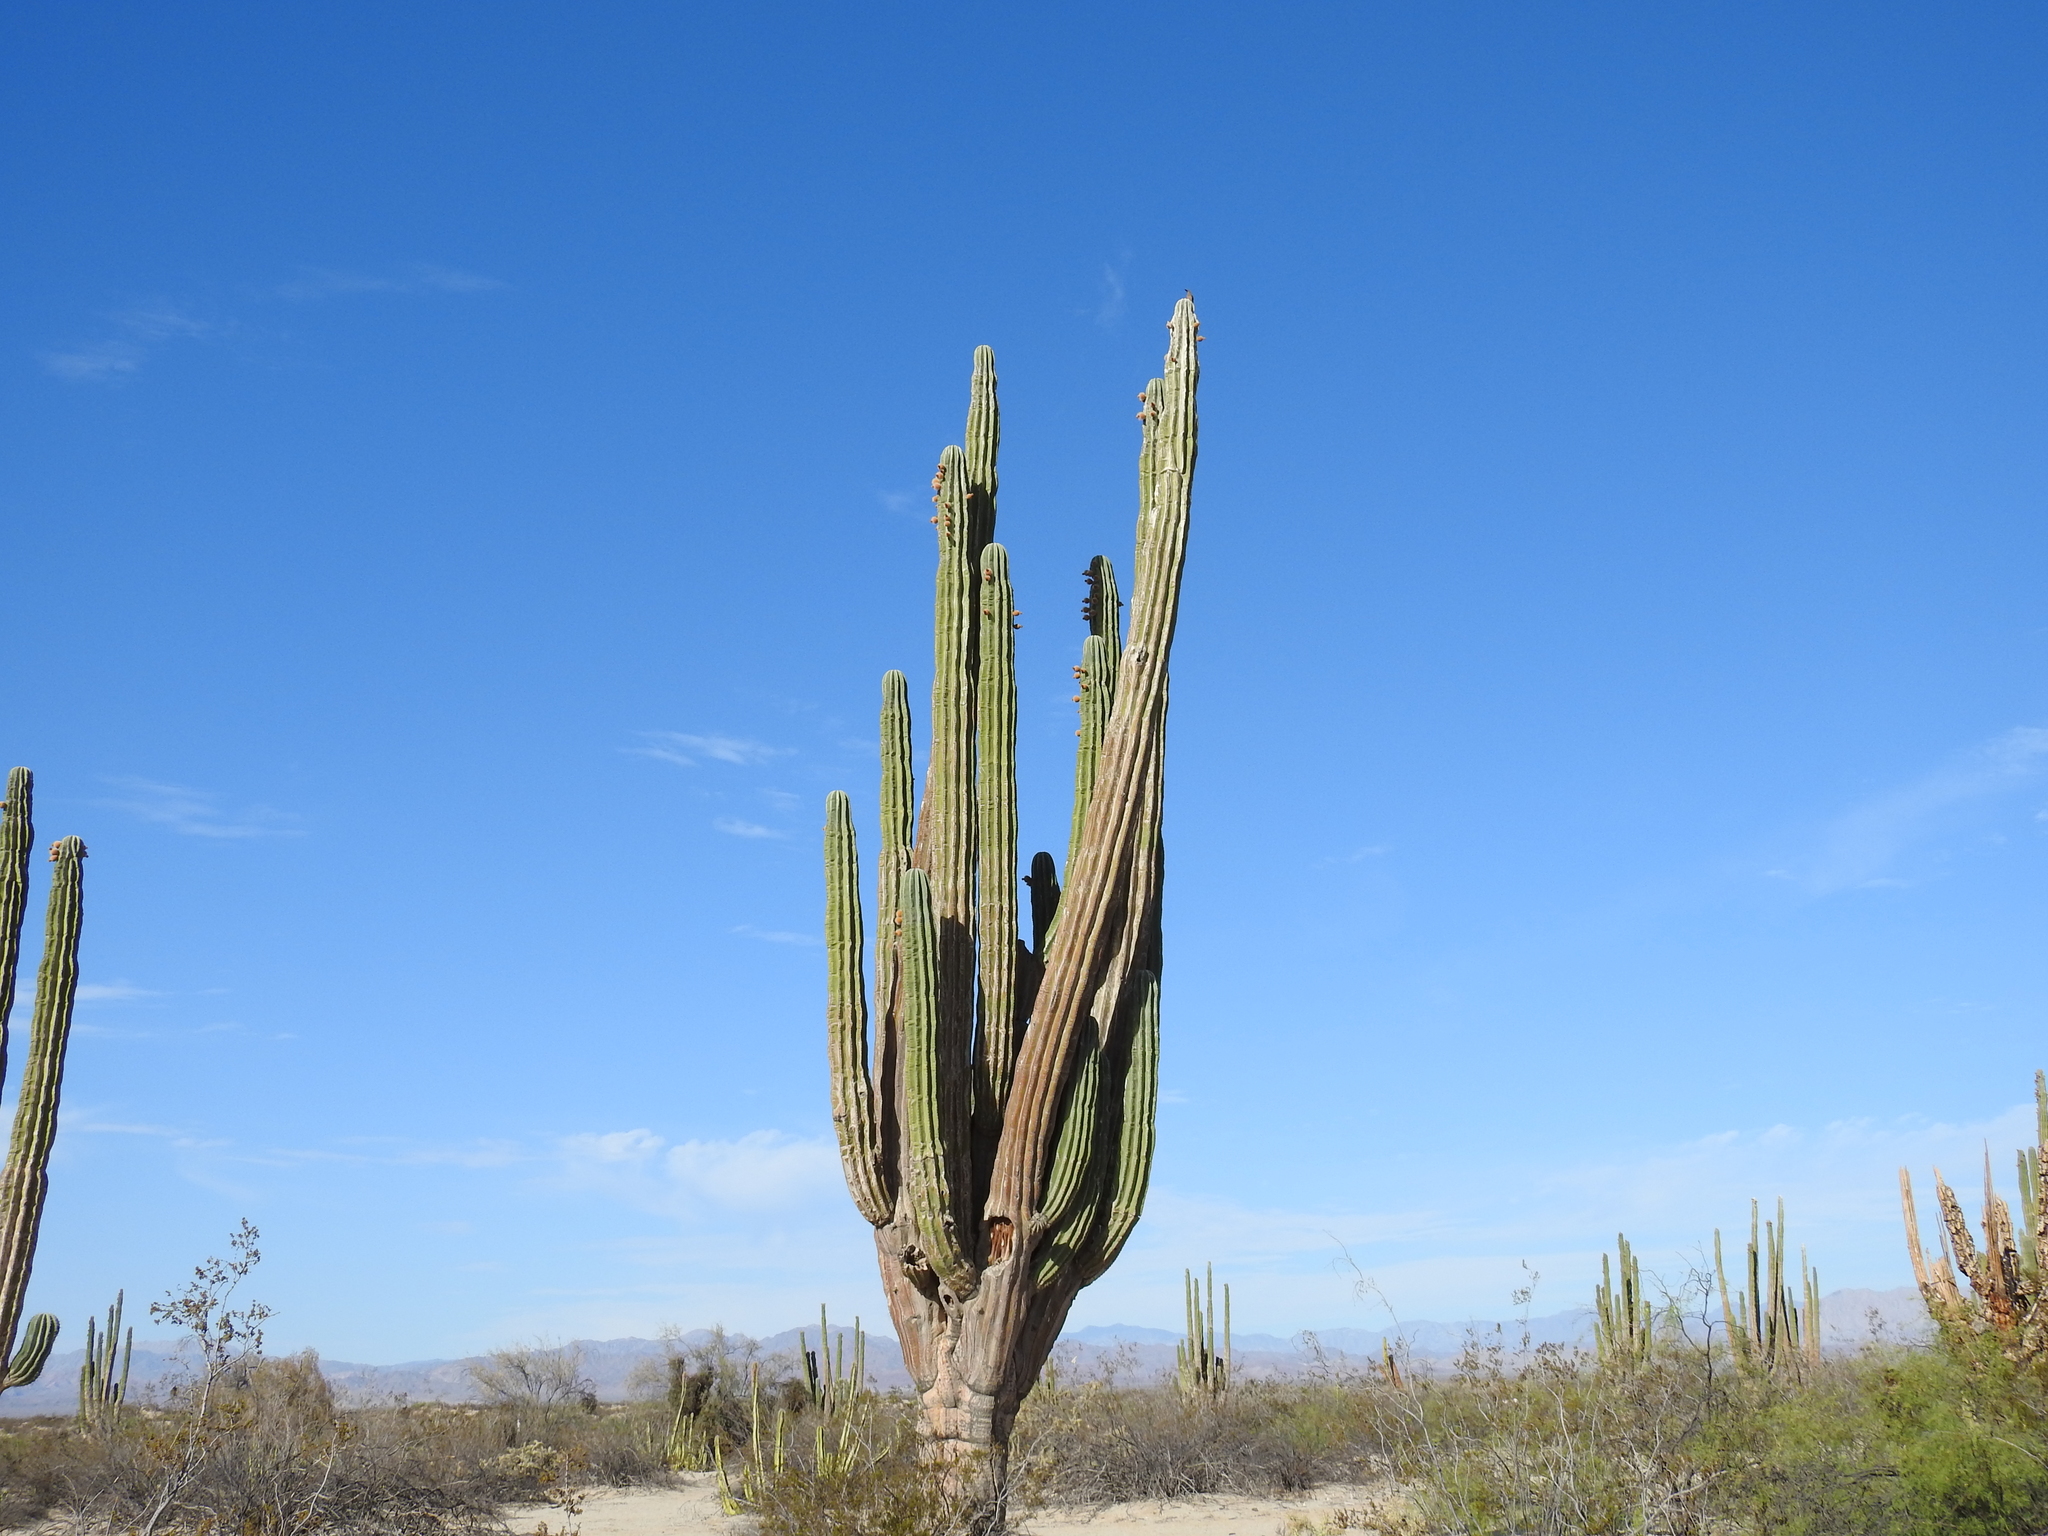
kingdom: Plantae
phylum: Tracheophyta
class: Magnoliopsida
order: Caryophyllales
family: Cactaceae
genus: Pachycereus
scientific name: Pachycereus pringlei
